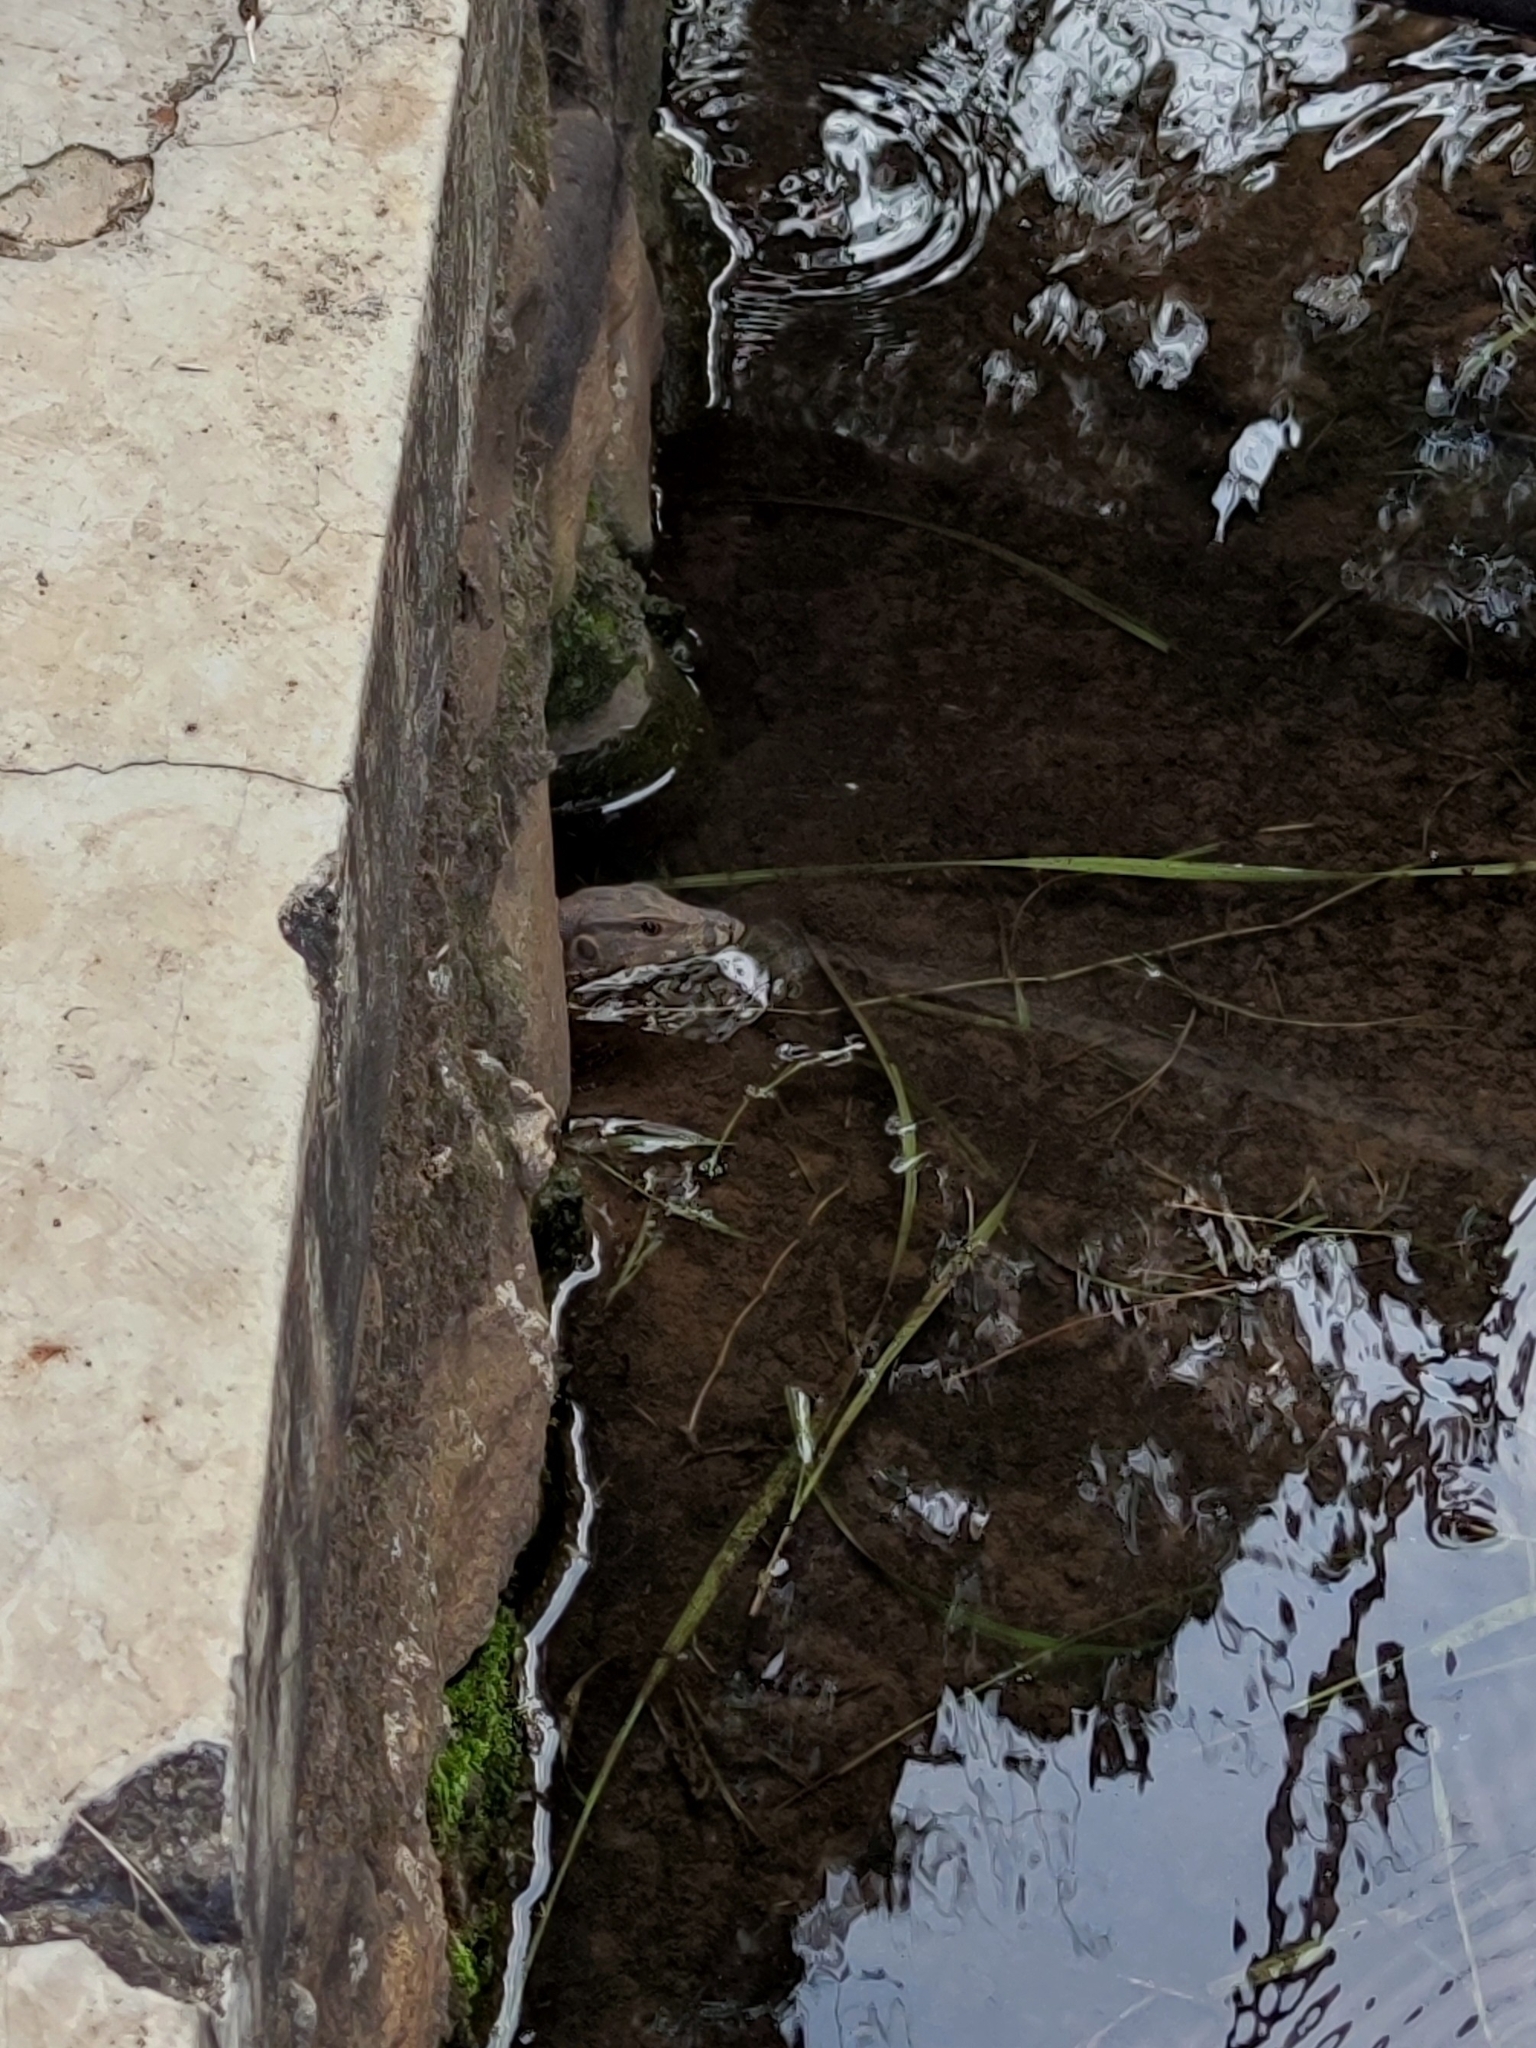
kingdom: Animalia
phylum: Chordata
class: Squamata
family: Varanidae
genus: Varanus
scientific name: Varanus salvator
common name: Common water monitor
